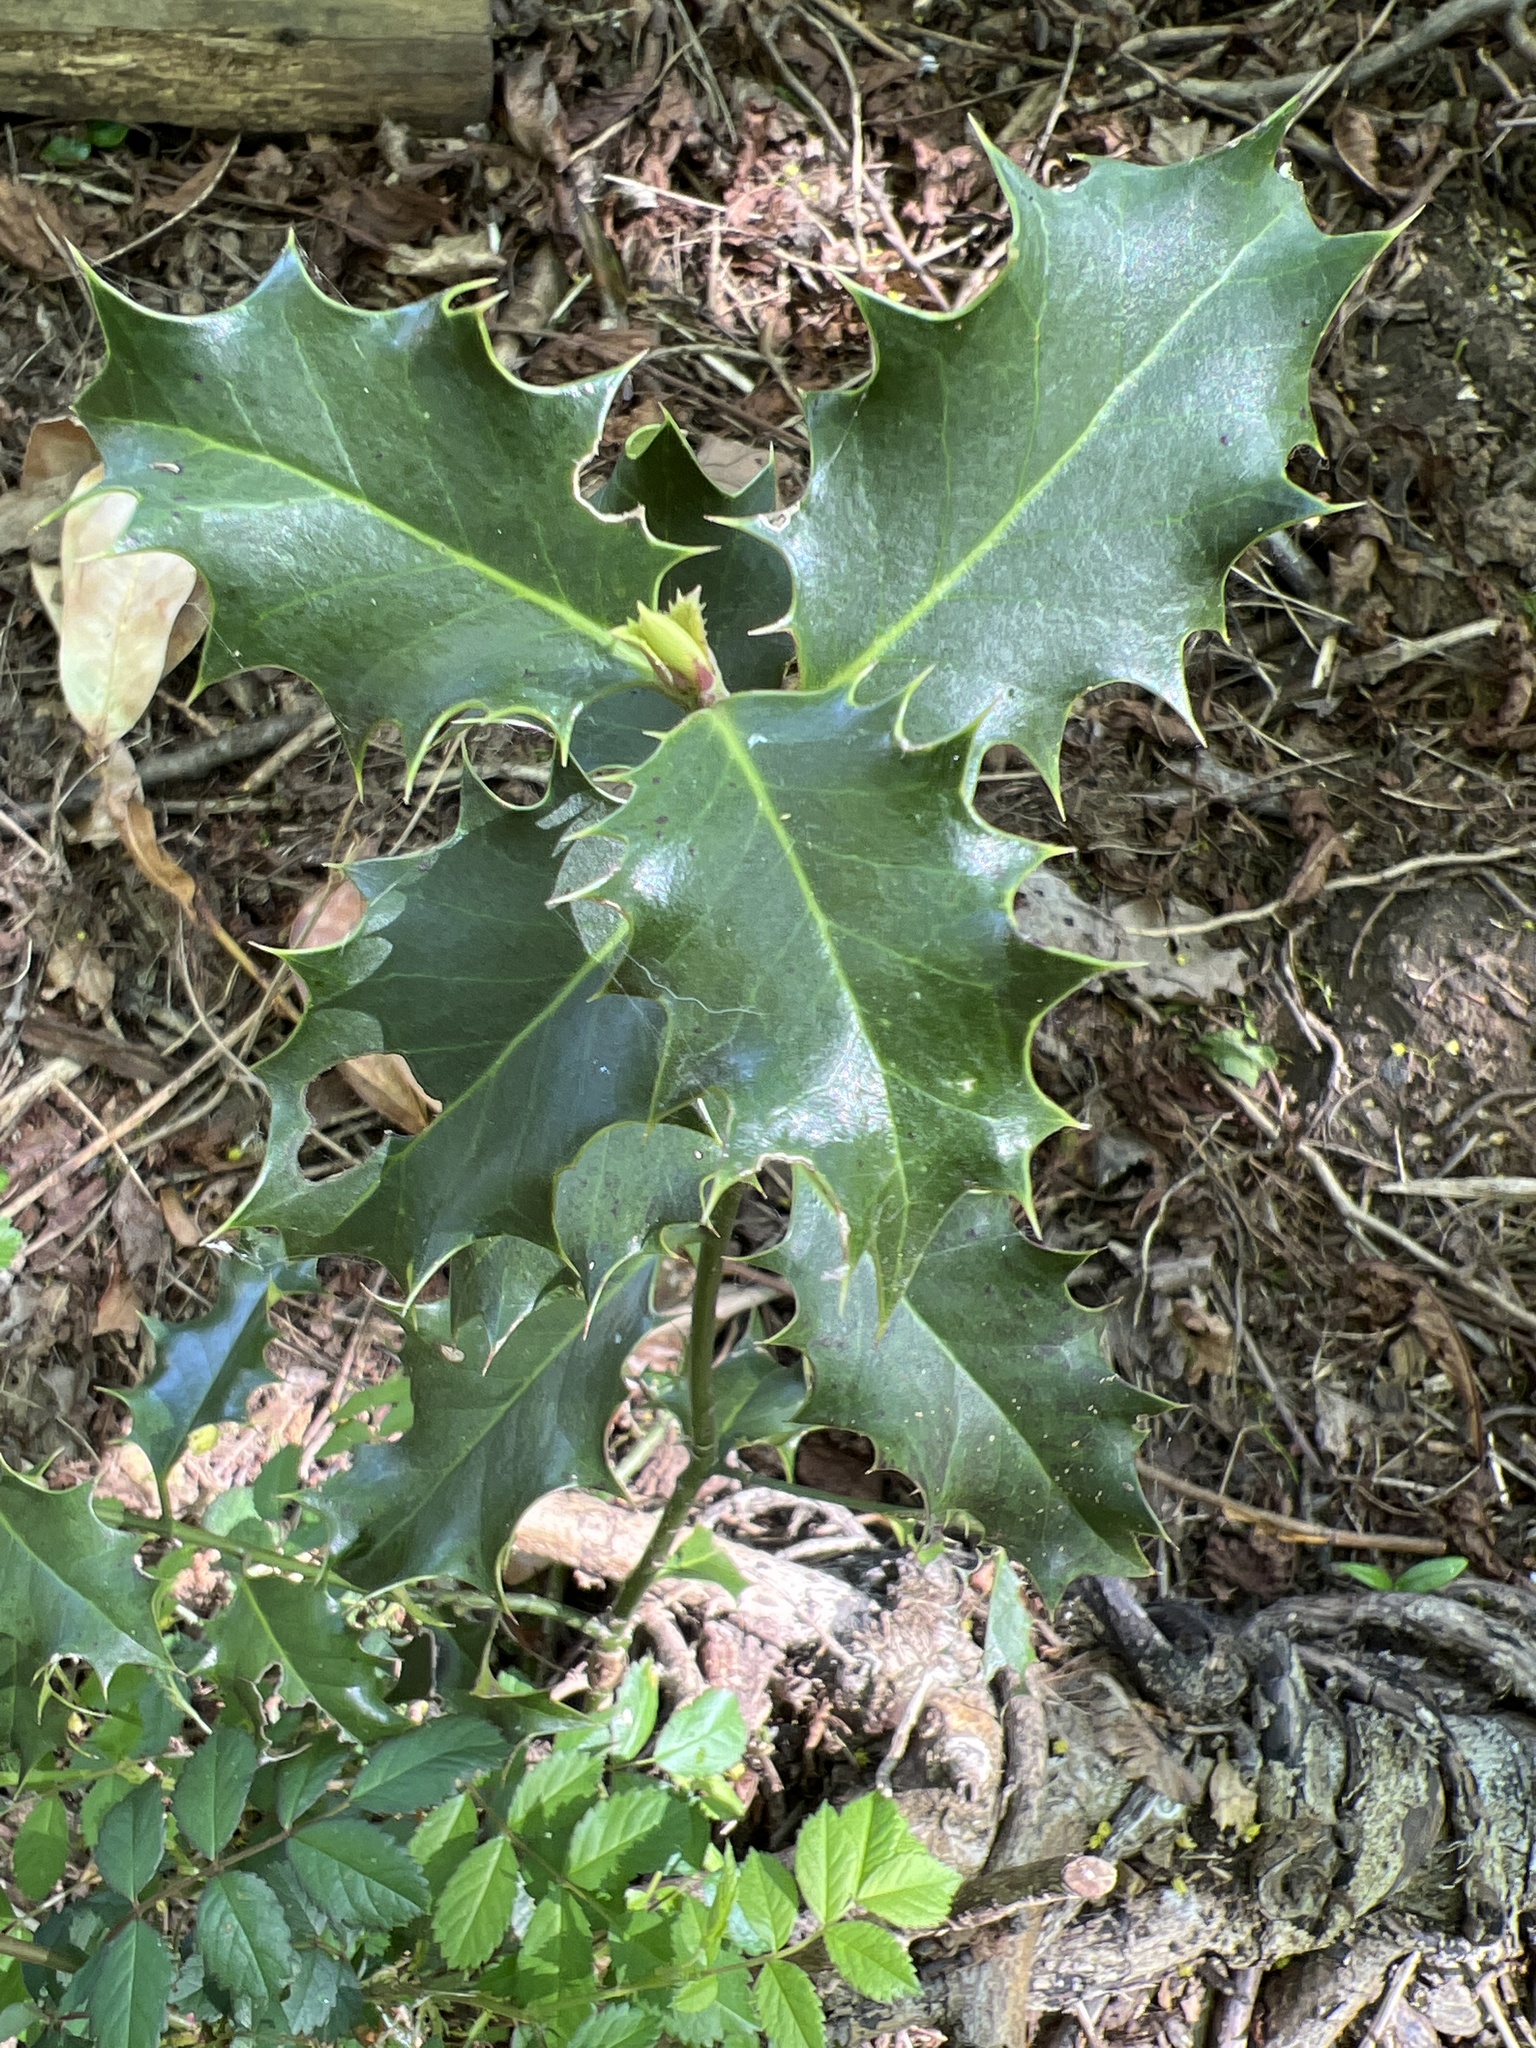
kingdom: Plantae
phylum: Tracheophyta
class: Magnoliopsida
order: Aquifoliales
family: Aquifoliaceae
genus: Ilex
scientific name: Ilex aquifolium
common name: English holly
